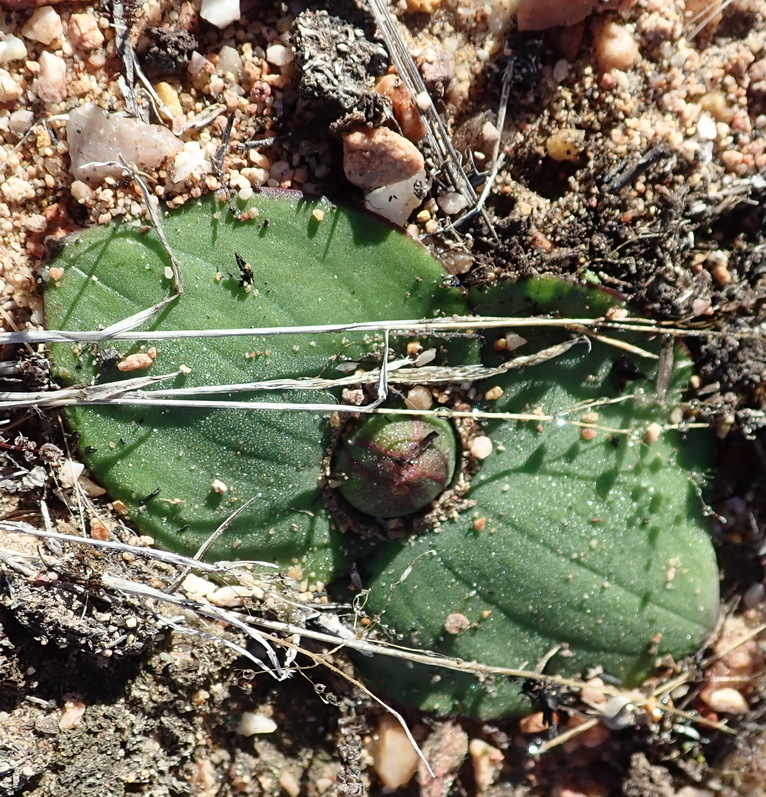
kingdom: Plantae
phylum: Tracheophyta
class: Liliopsida
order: Asparagales
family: Asparagaceae
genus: Massonia
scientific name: Massonia depressa
